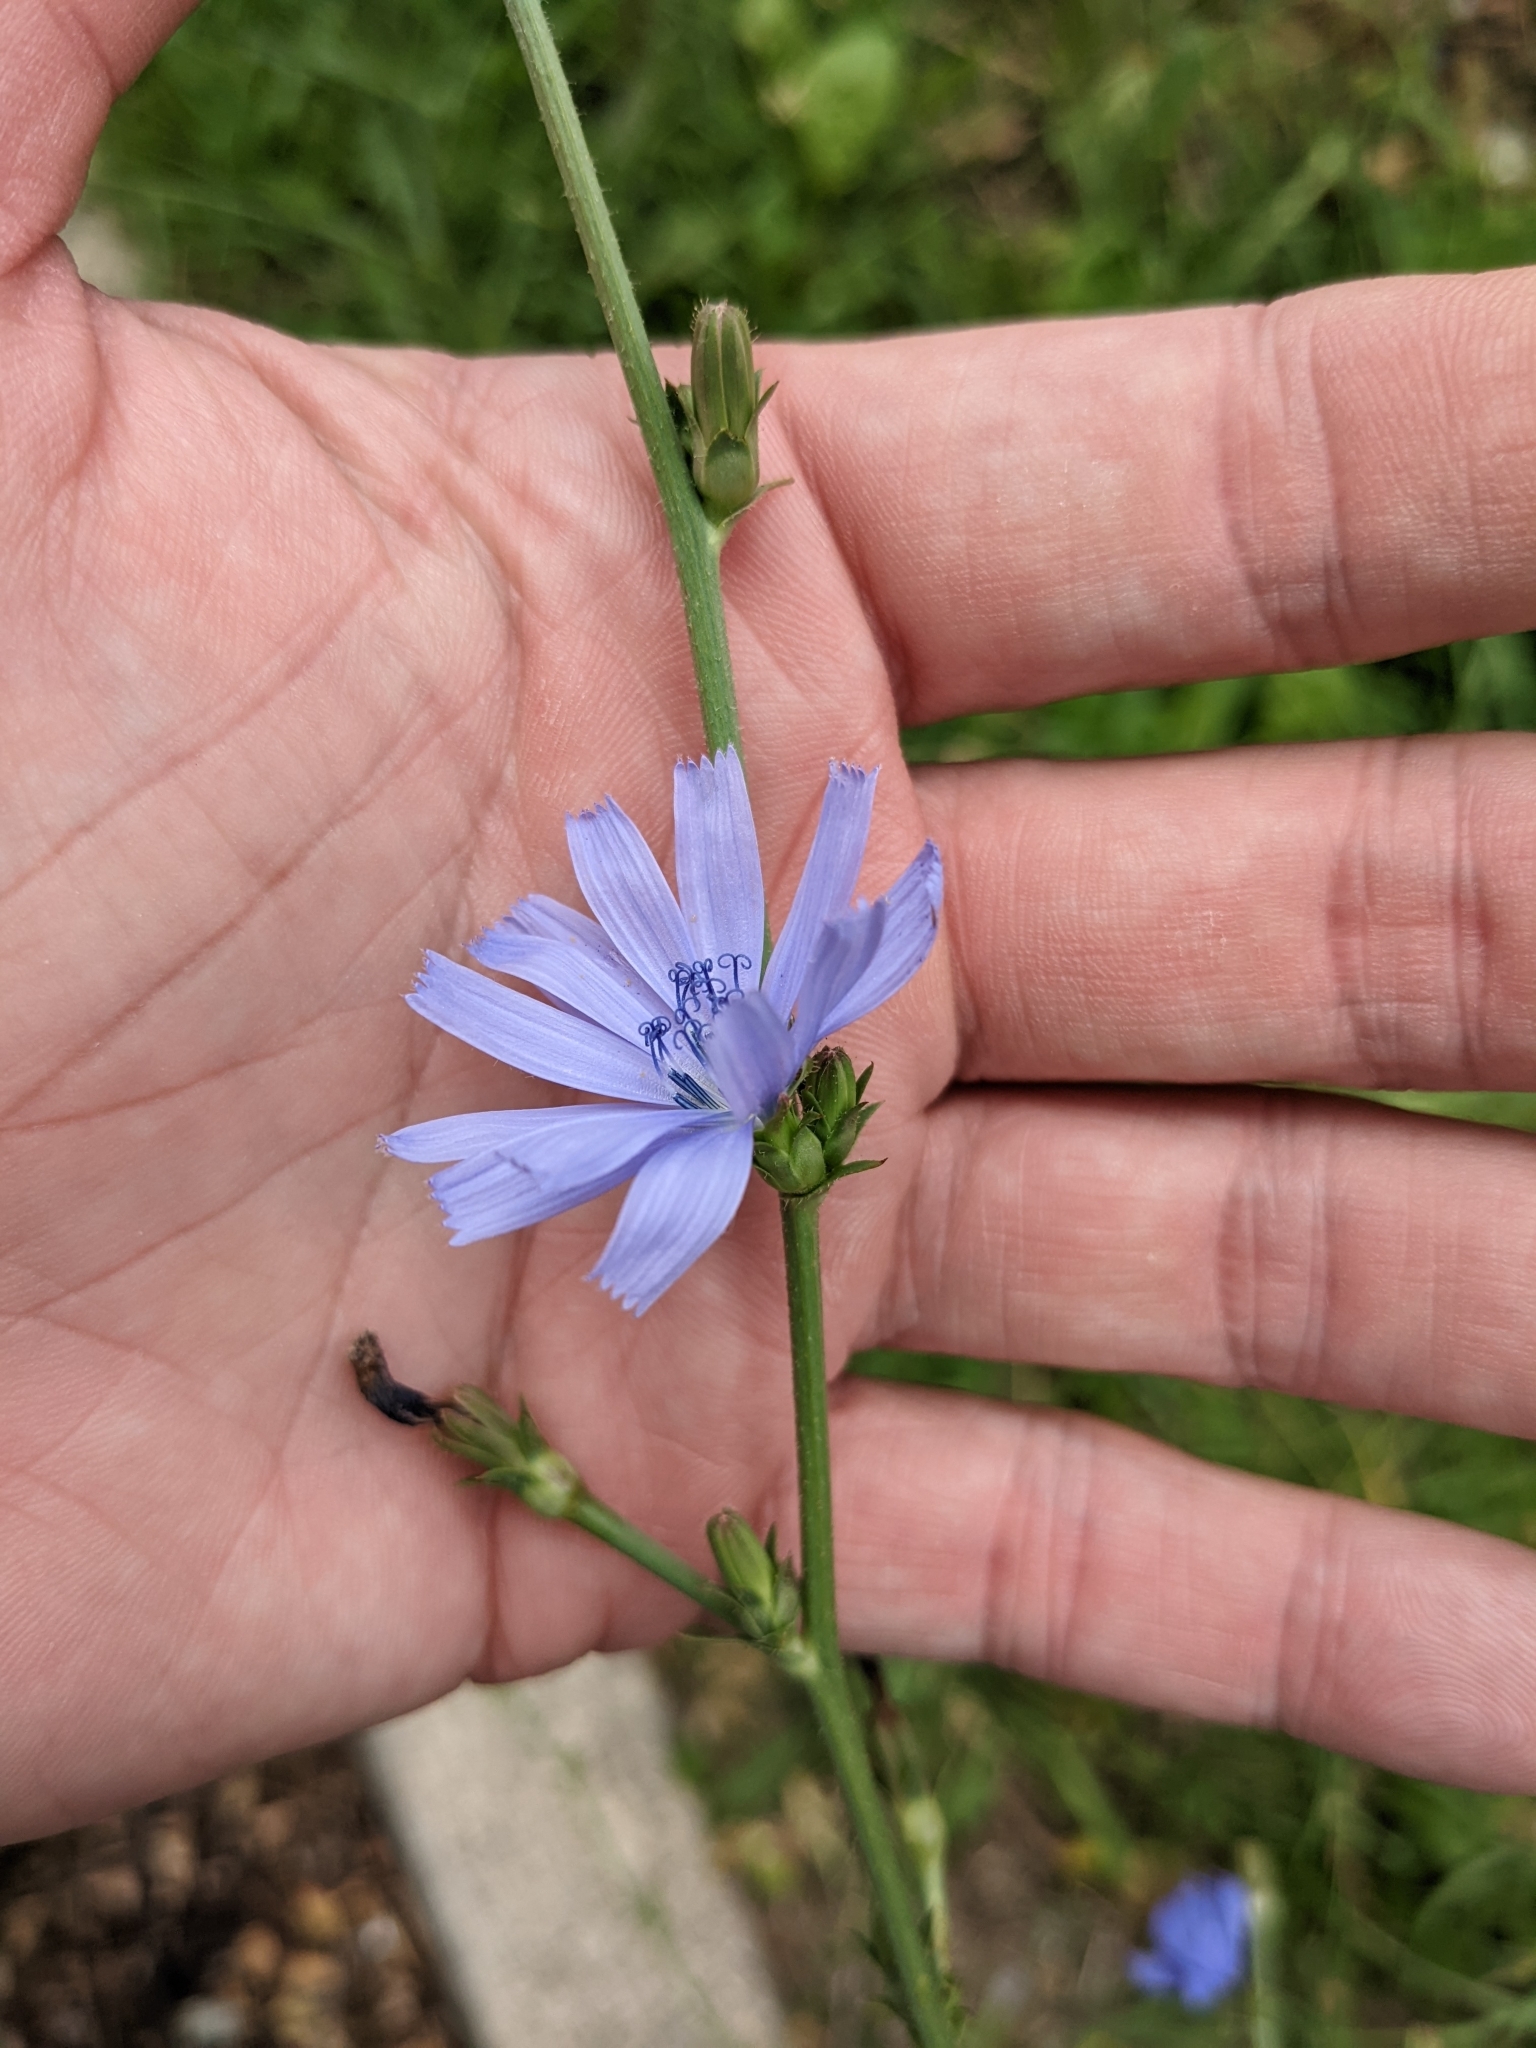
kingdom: Plantae
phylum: Tracheophyta
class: Magnoliopsida
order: Asterales
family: Asteraceae
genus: Cichorium
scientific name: Cichorium intybus
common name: Chicory
